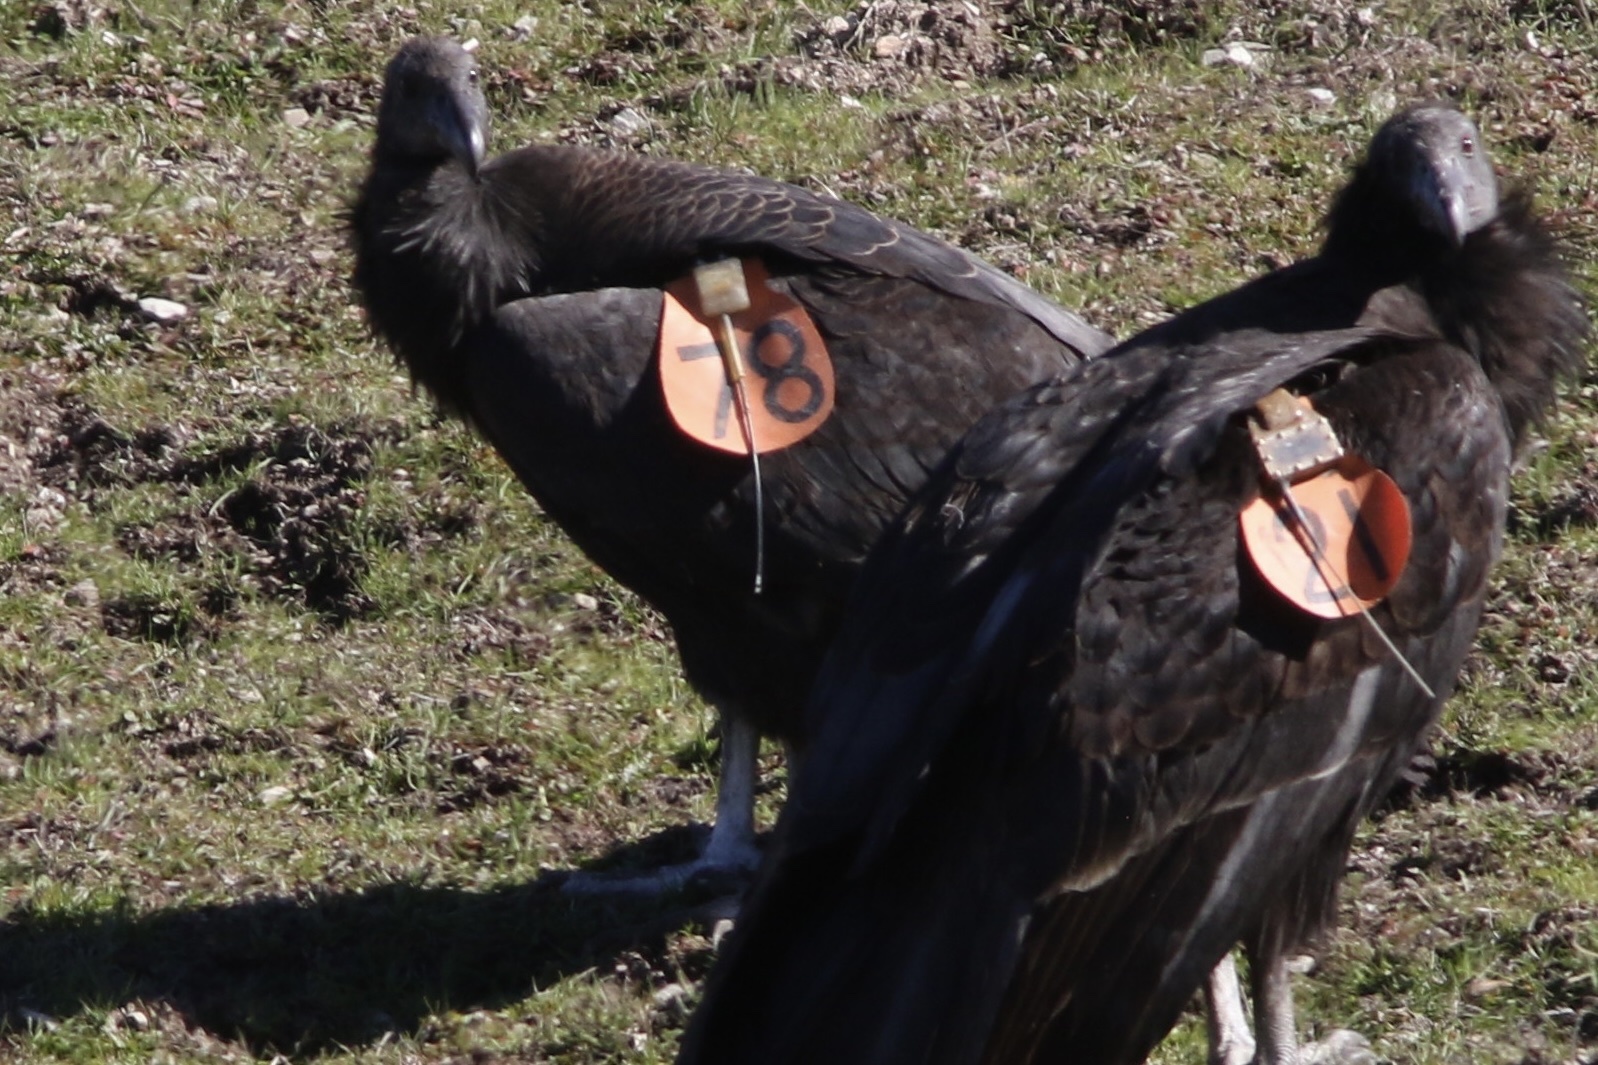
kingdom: Animalia
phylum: Chordata
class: Aves
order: Accipitriformes
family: Cathartidae
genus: Gymnogyps
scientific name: Gymnogyps californianus
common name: California condor
